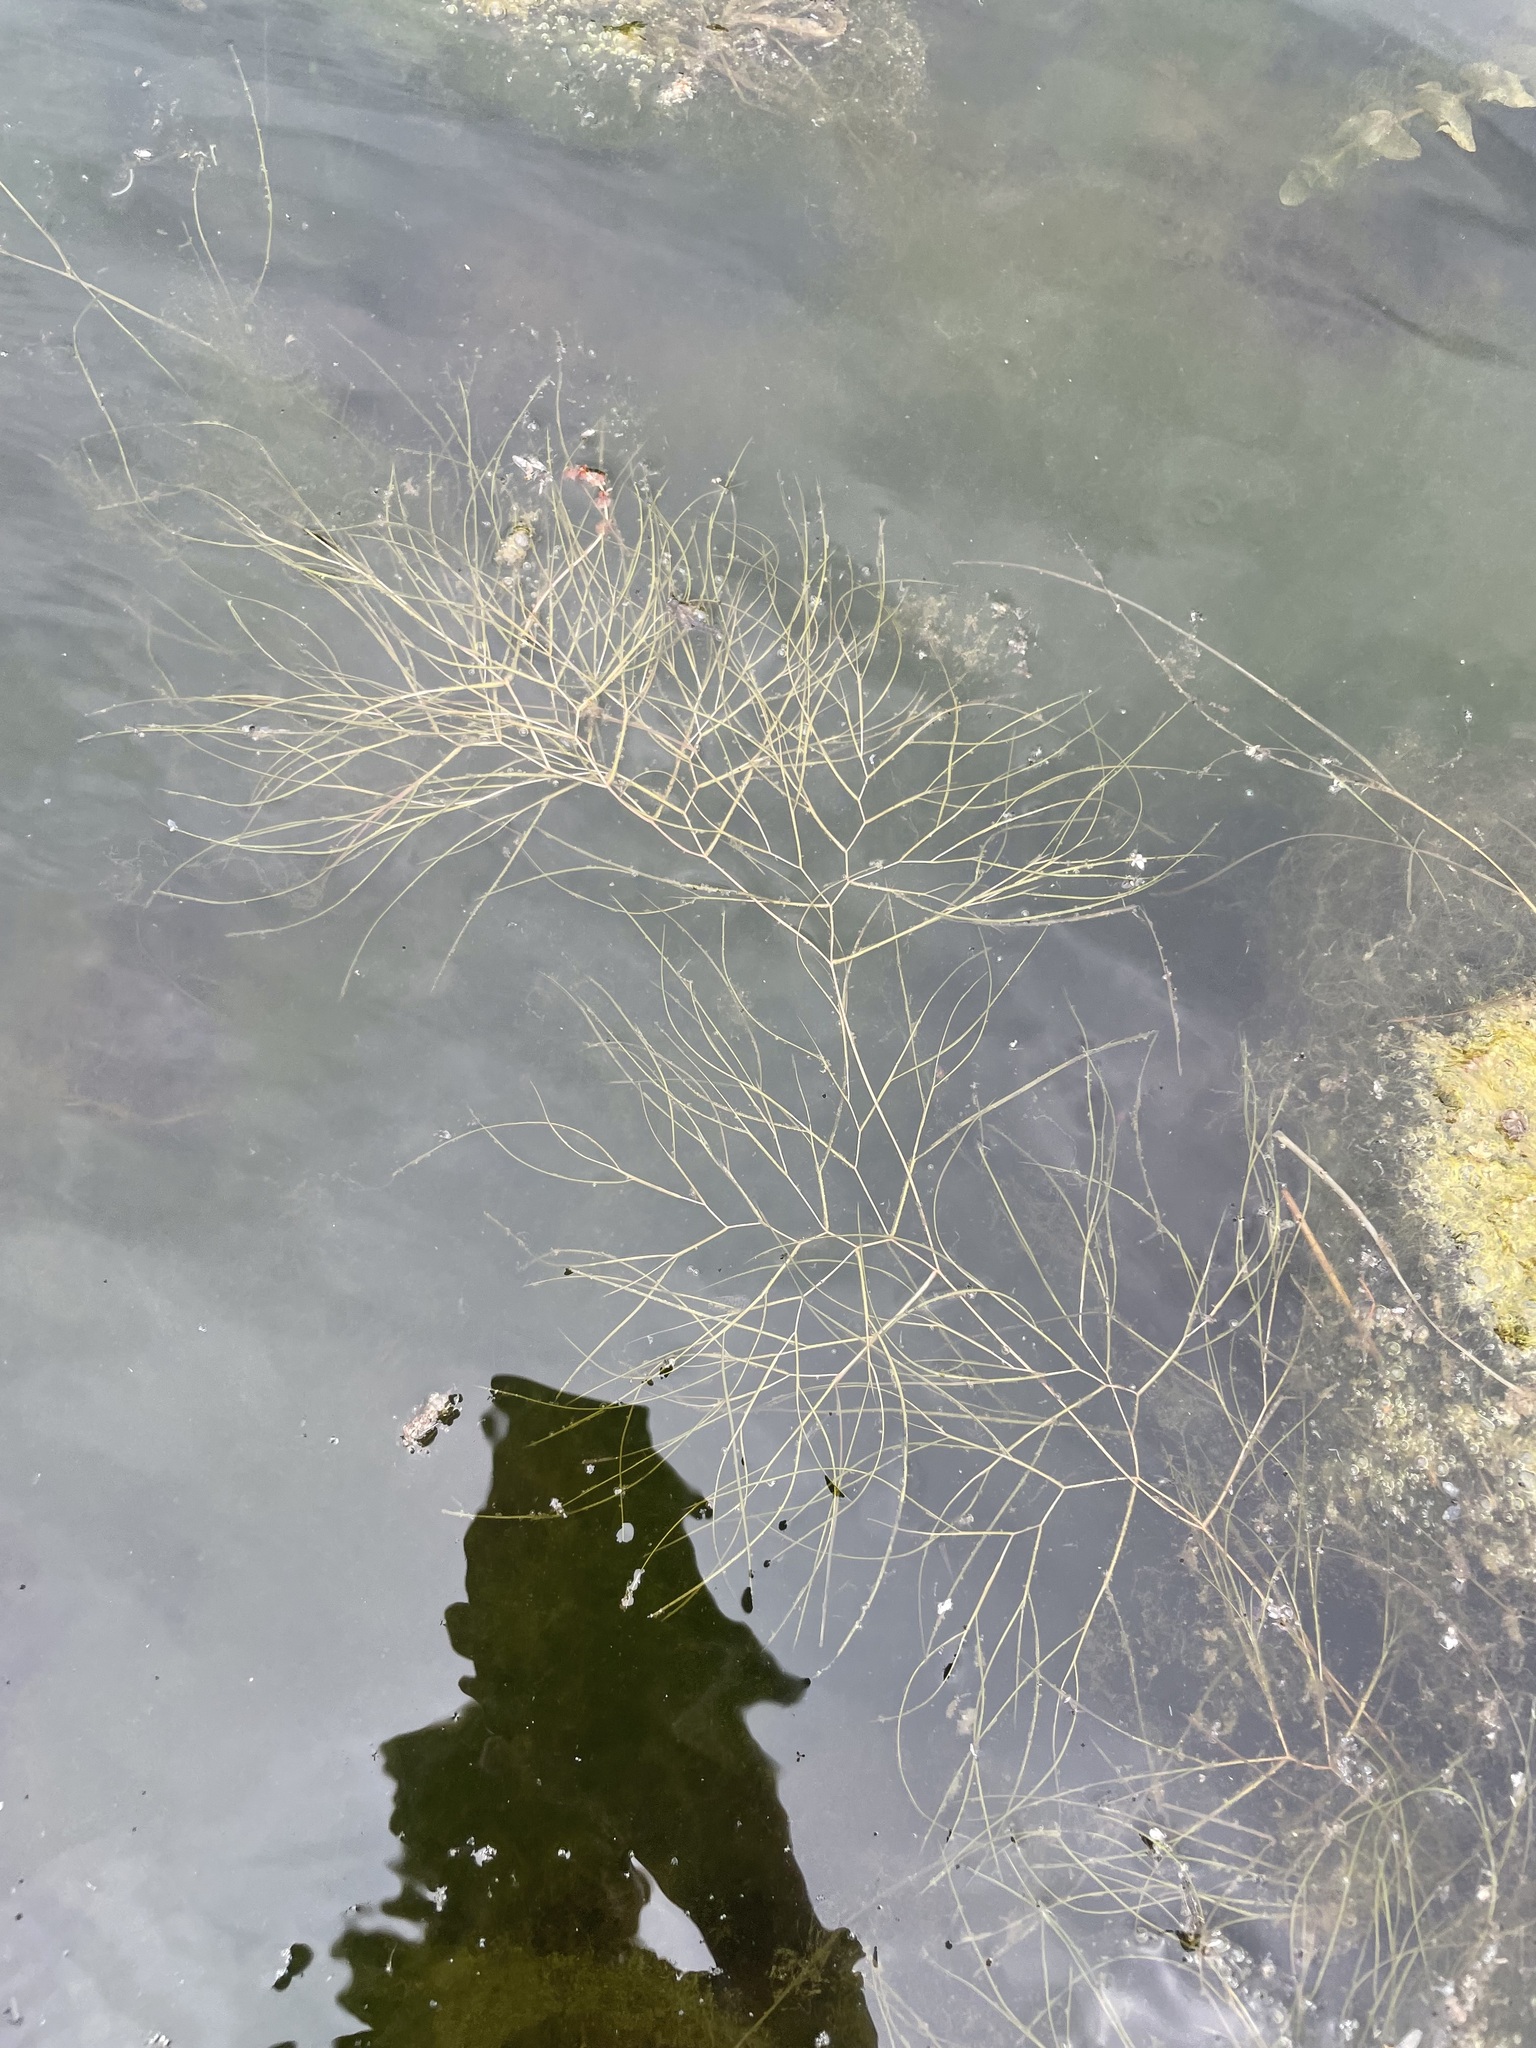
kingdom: Plantae
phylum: Tracheophyta
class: Liliopsida
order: Alismatales
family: Potamogetonaceae
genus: Stuckenia
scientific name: Stuckenia pectinata
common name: Sago pondweed
